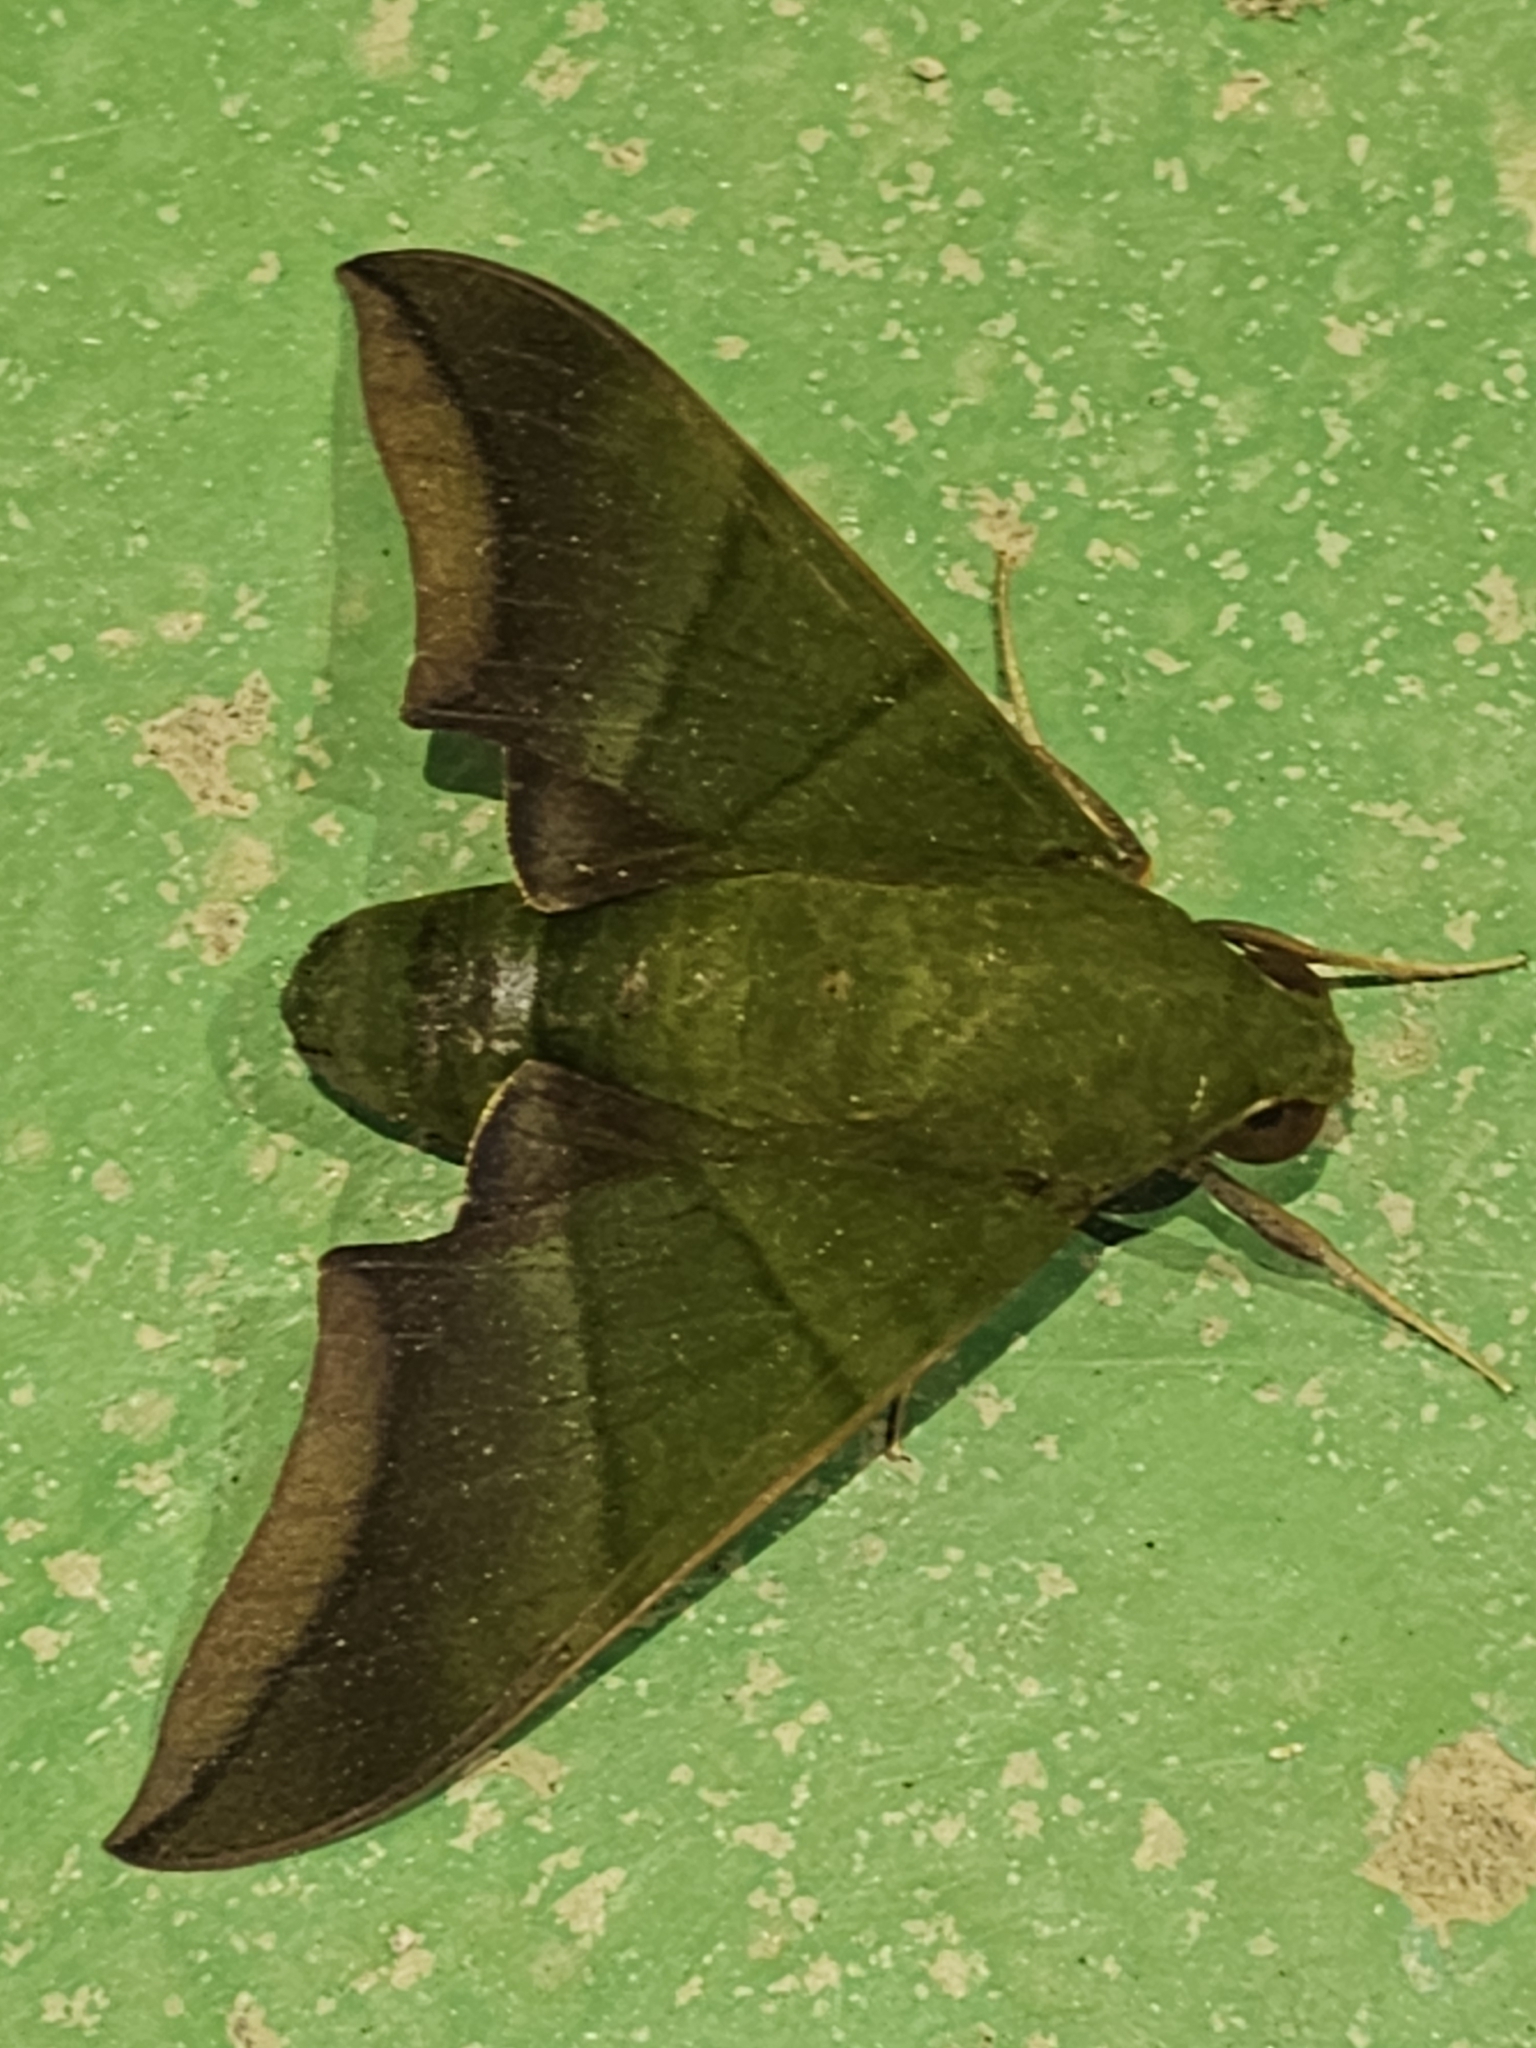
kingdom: Animalia
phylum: Arthropoda
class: Insecta
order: Lepidoptera
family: Sphingidae
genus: Oryba
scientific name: Oryba achemenides
